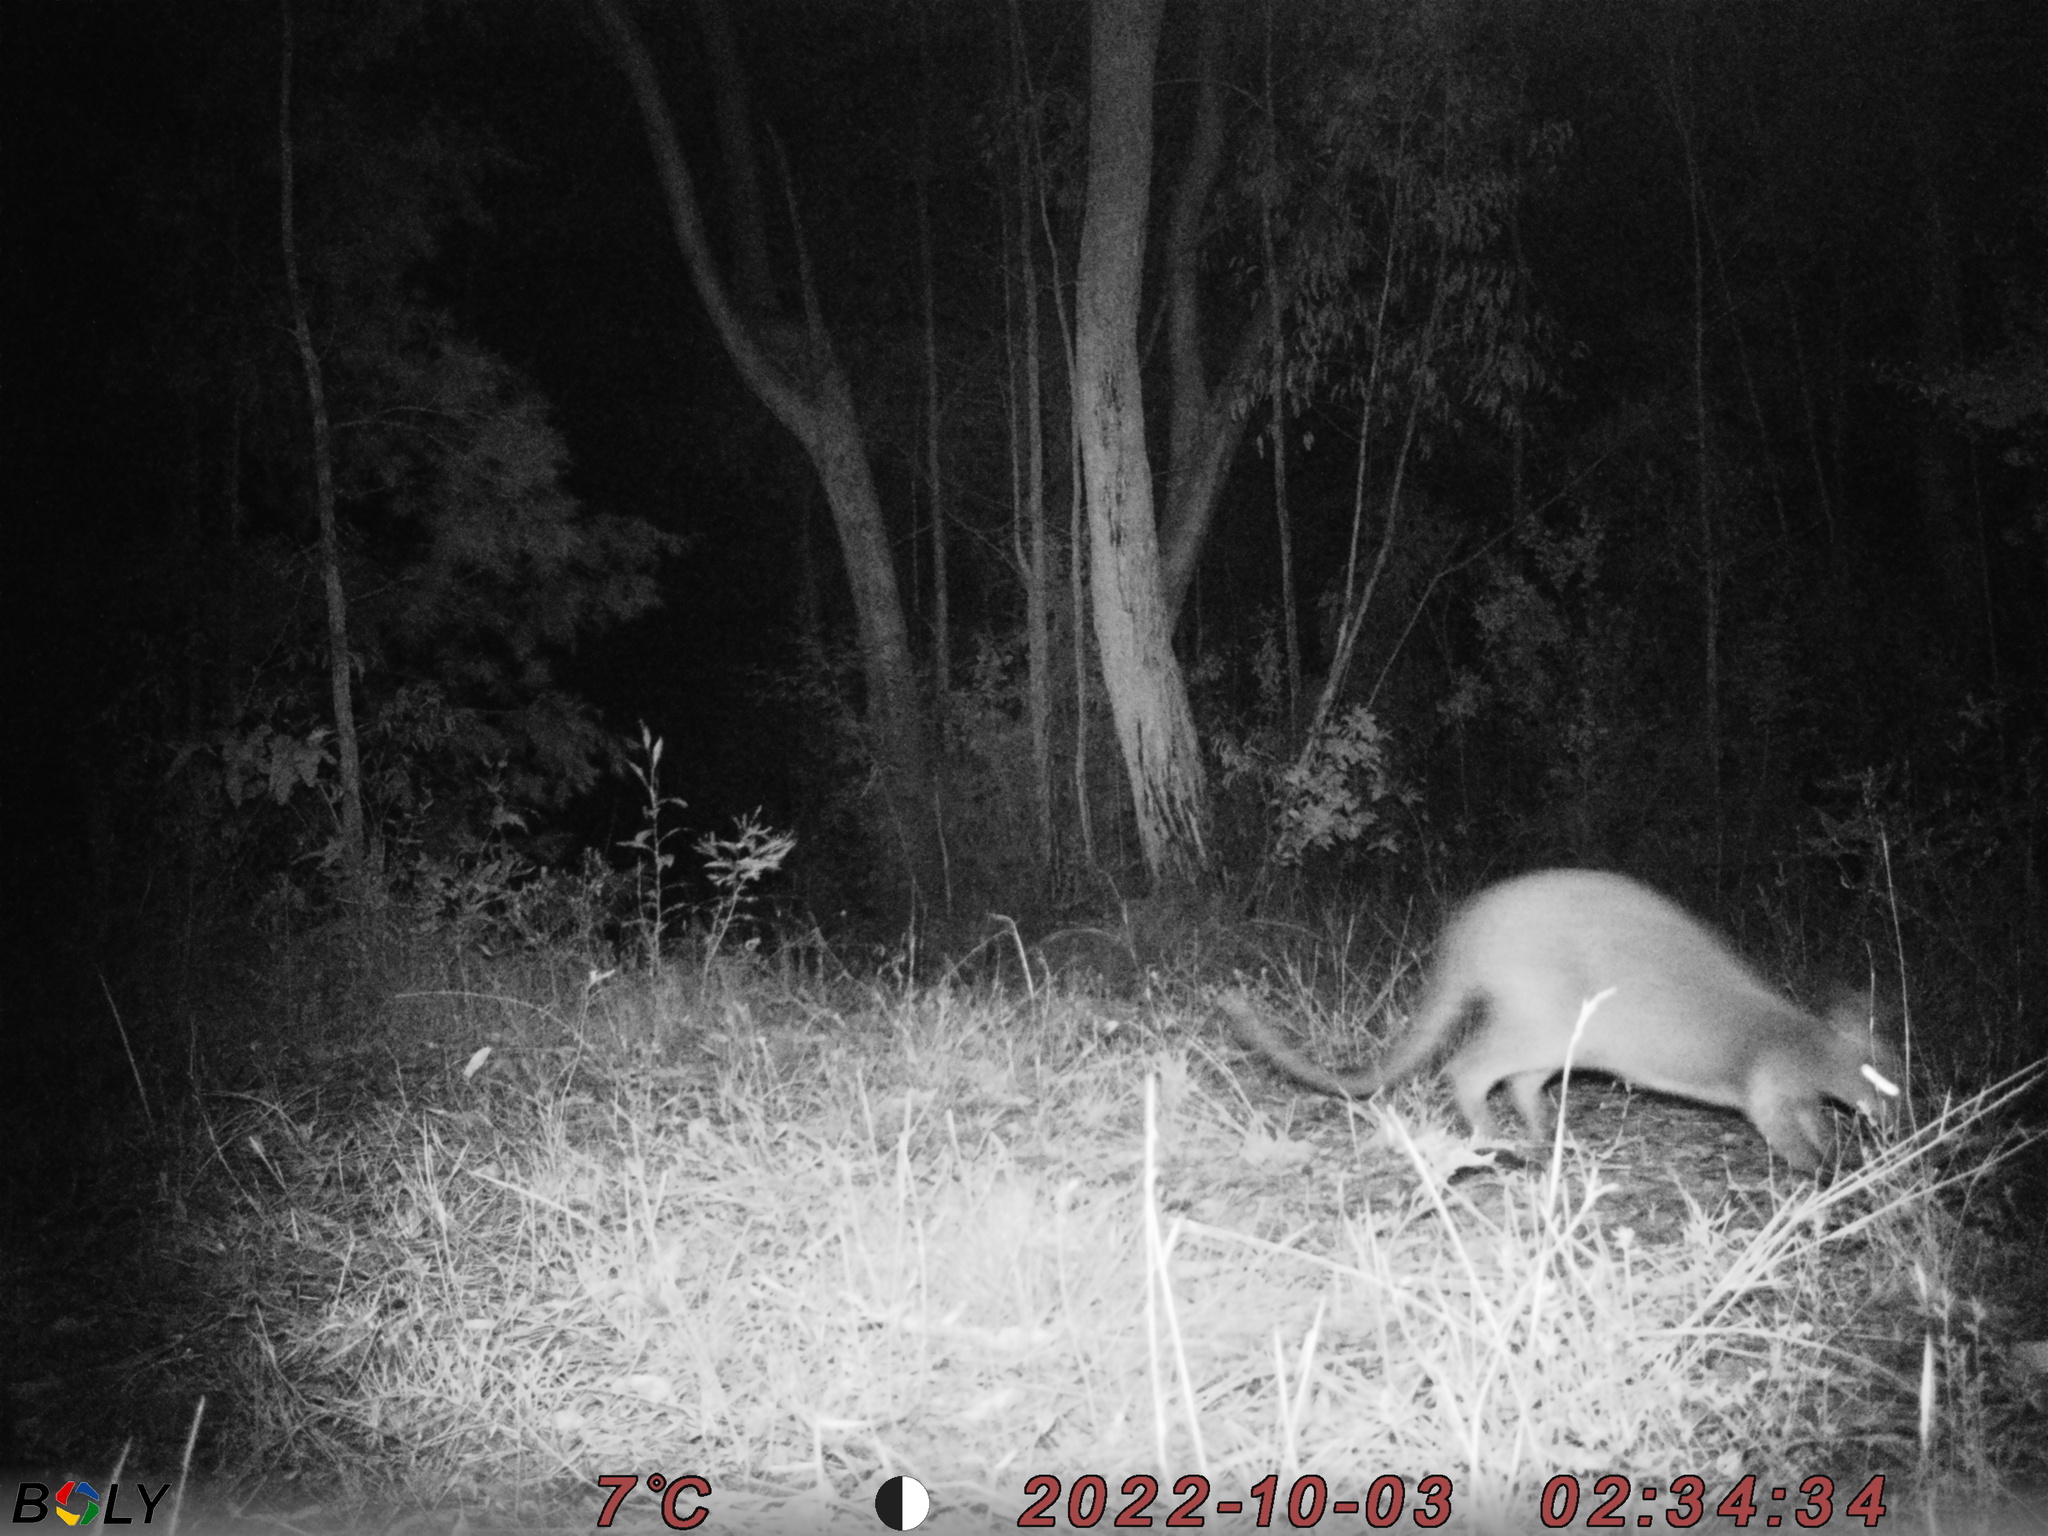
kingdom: Animalia
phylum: Chordata
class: Mammalia
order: Diprotodontia
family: Macropodidae
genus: Wallabia
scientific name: Wallabia bicolor
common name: Swamp wallaby
